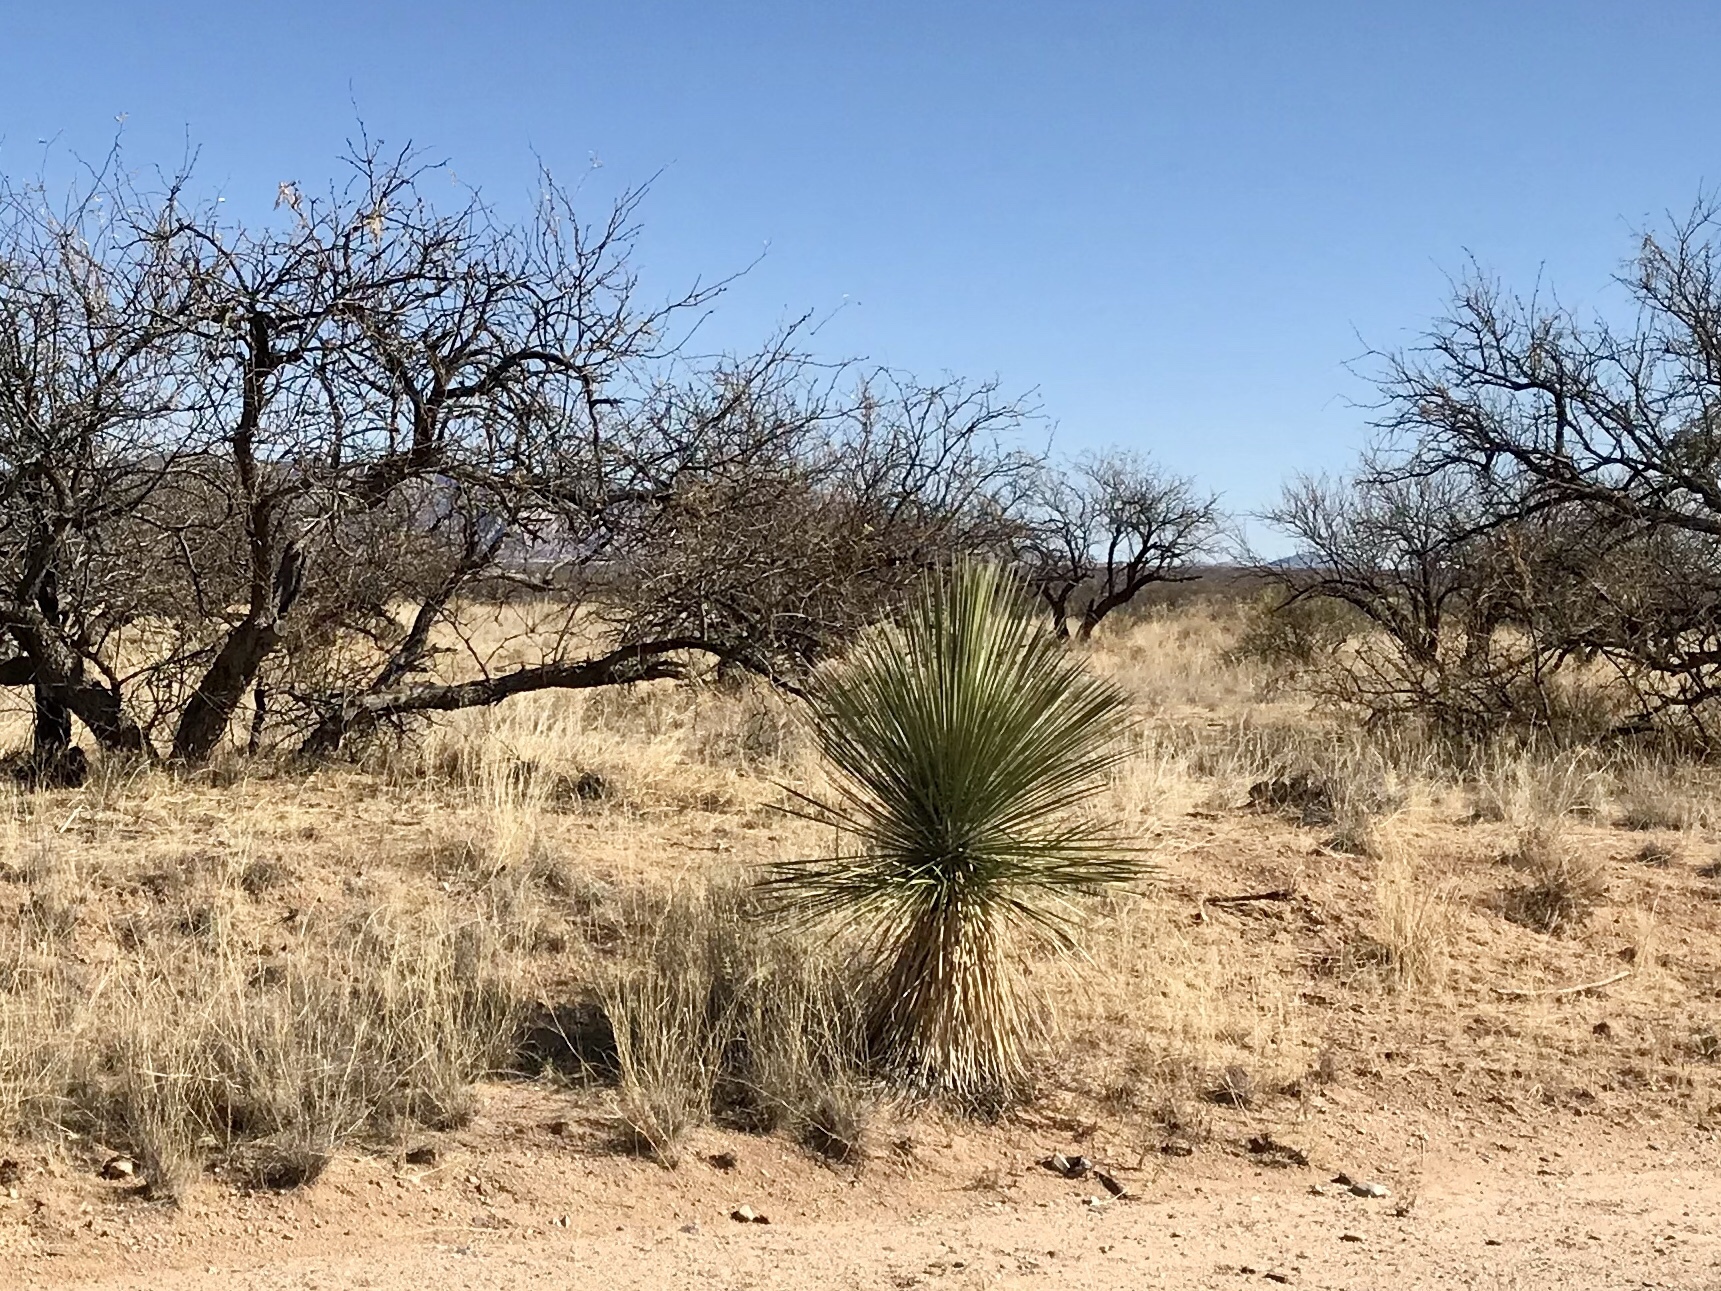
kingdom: Plantae
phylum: Tracheophyta
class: Liliopsida
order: Asparagales
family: Asparagaceae
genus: Yucca
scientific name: Yucca elata
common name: Palmella
